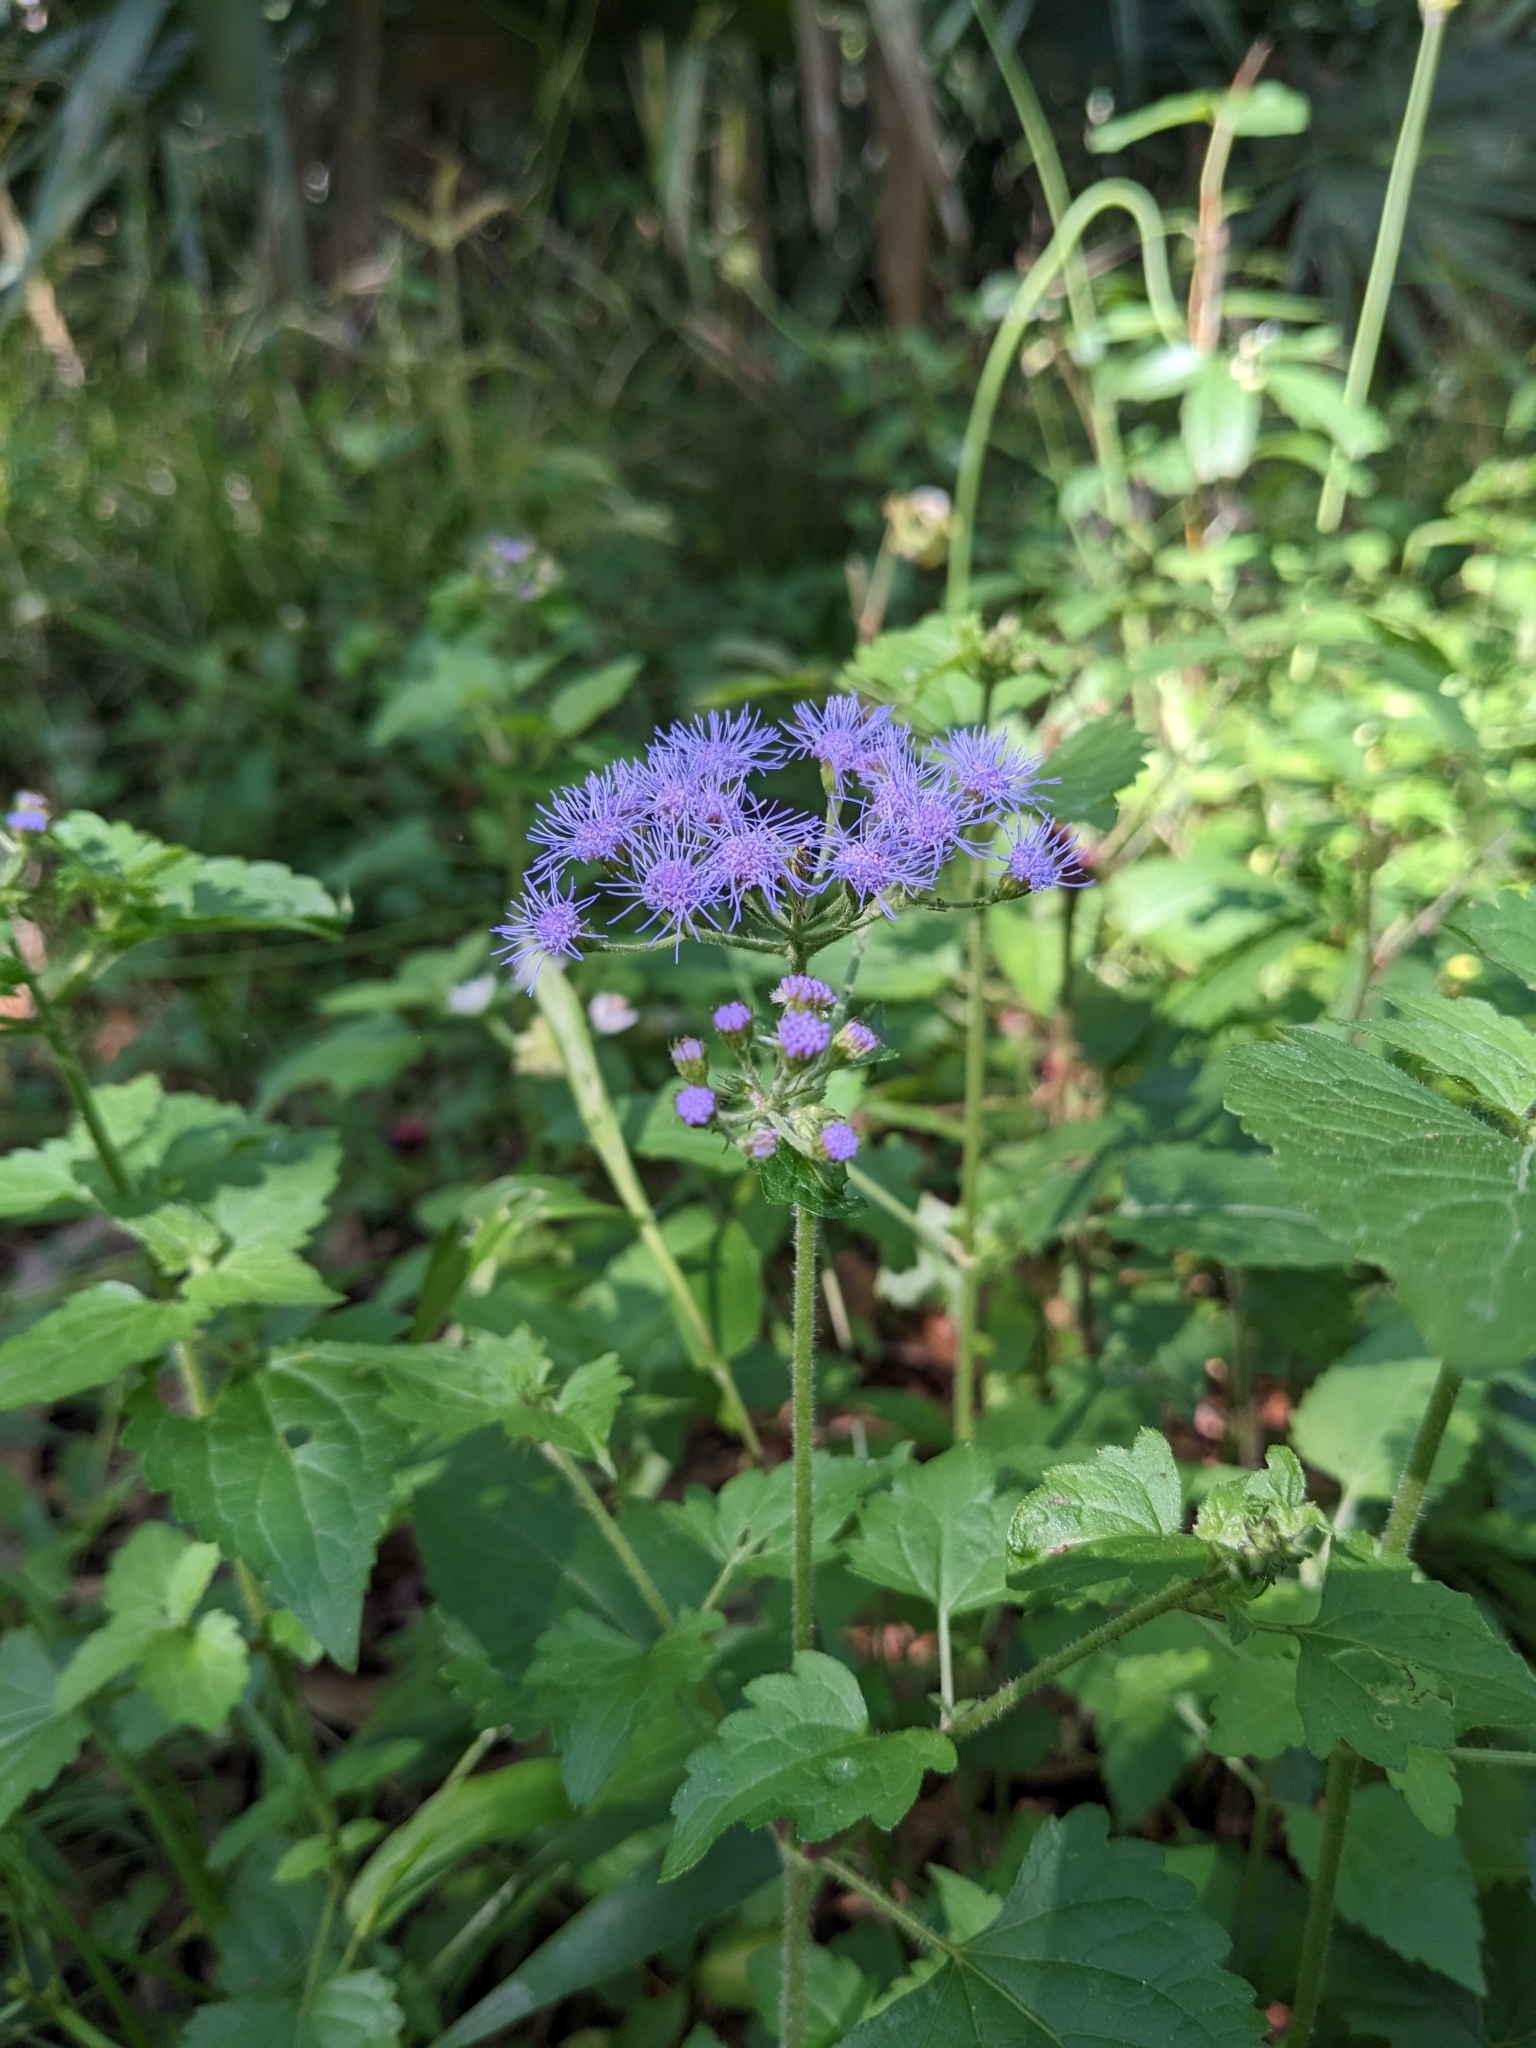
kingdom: Plantae
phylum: Tracheophyta
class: Magnoliopsida
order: Asterales
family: Asteraceae
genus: Conoclinium
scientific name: Conoclinium coelestinum
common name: Blue mistflower
